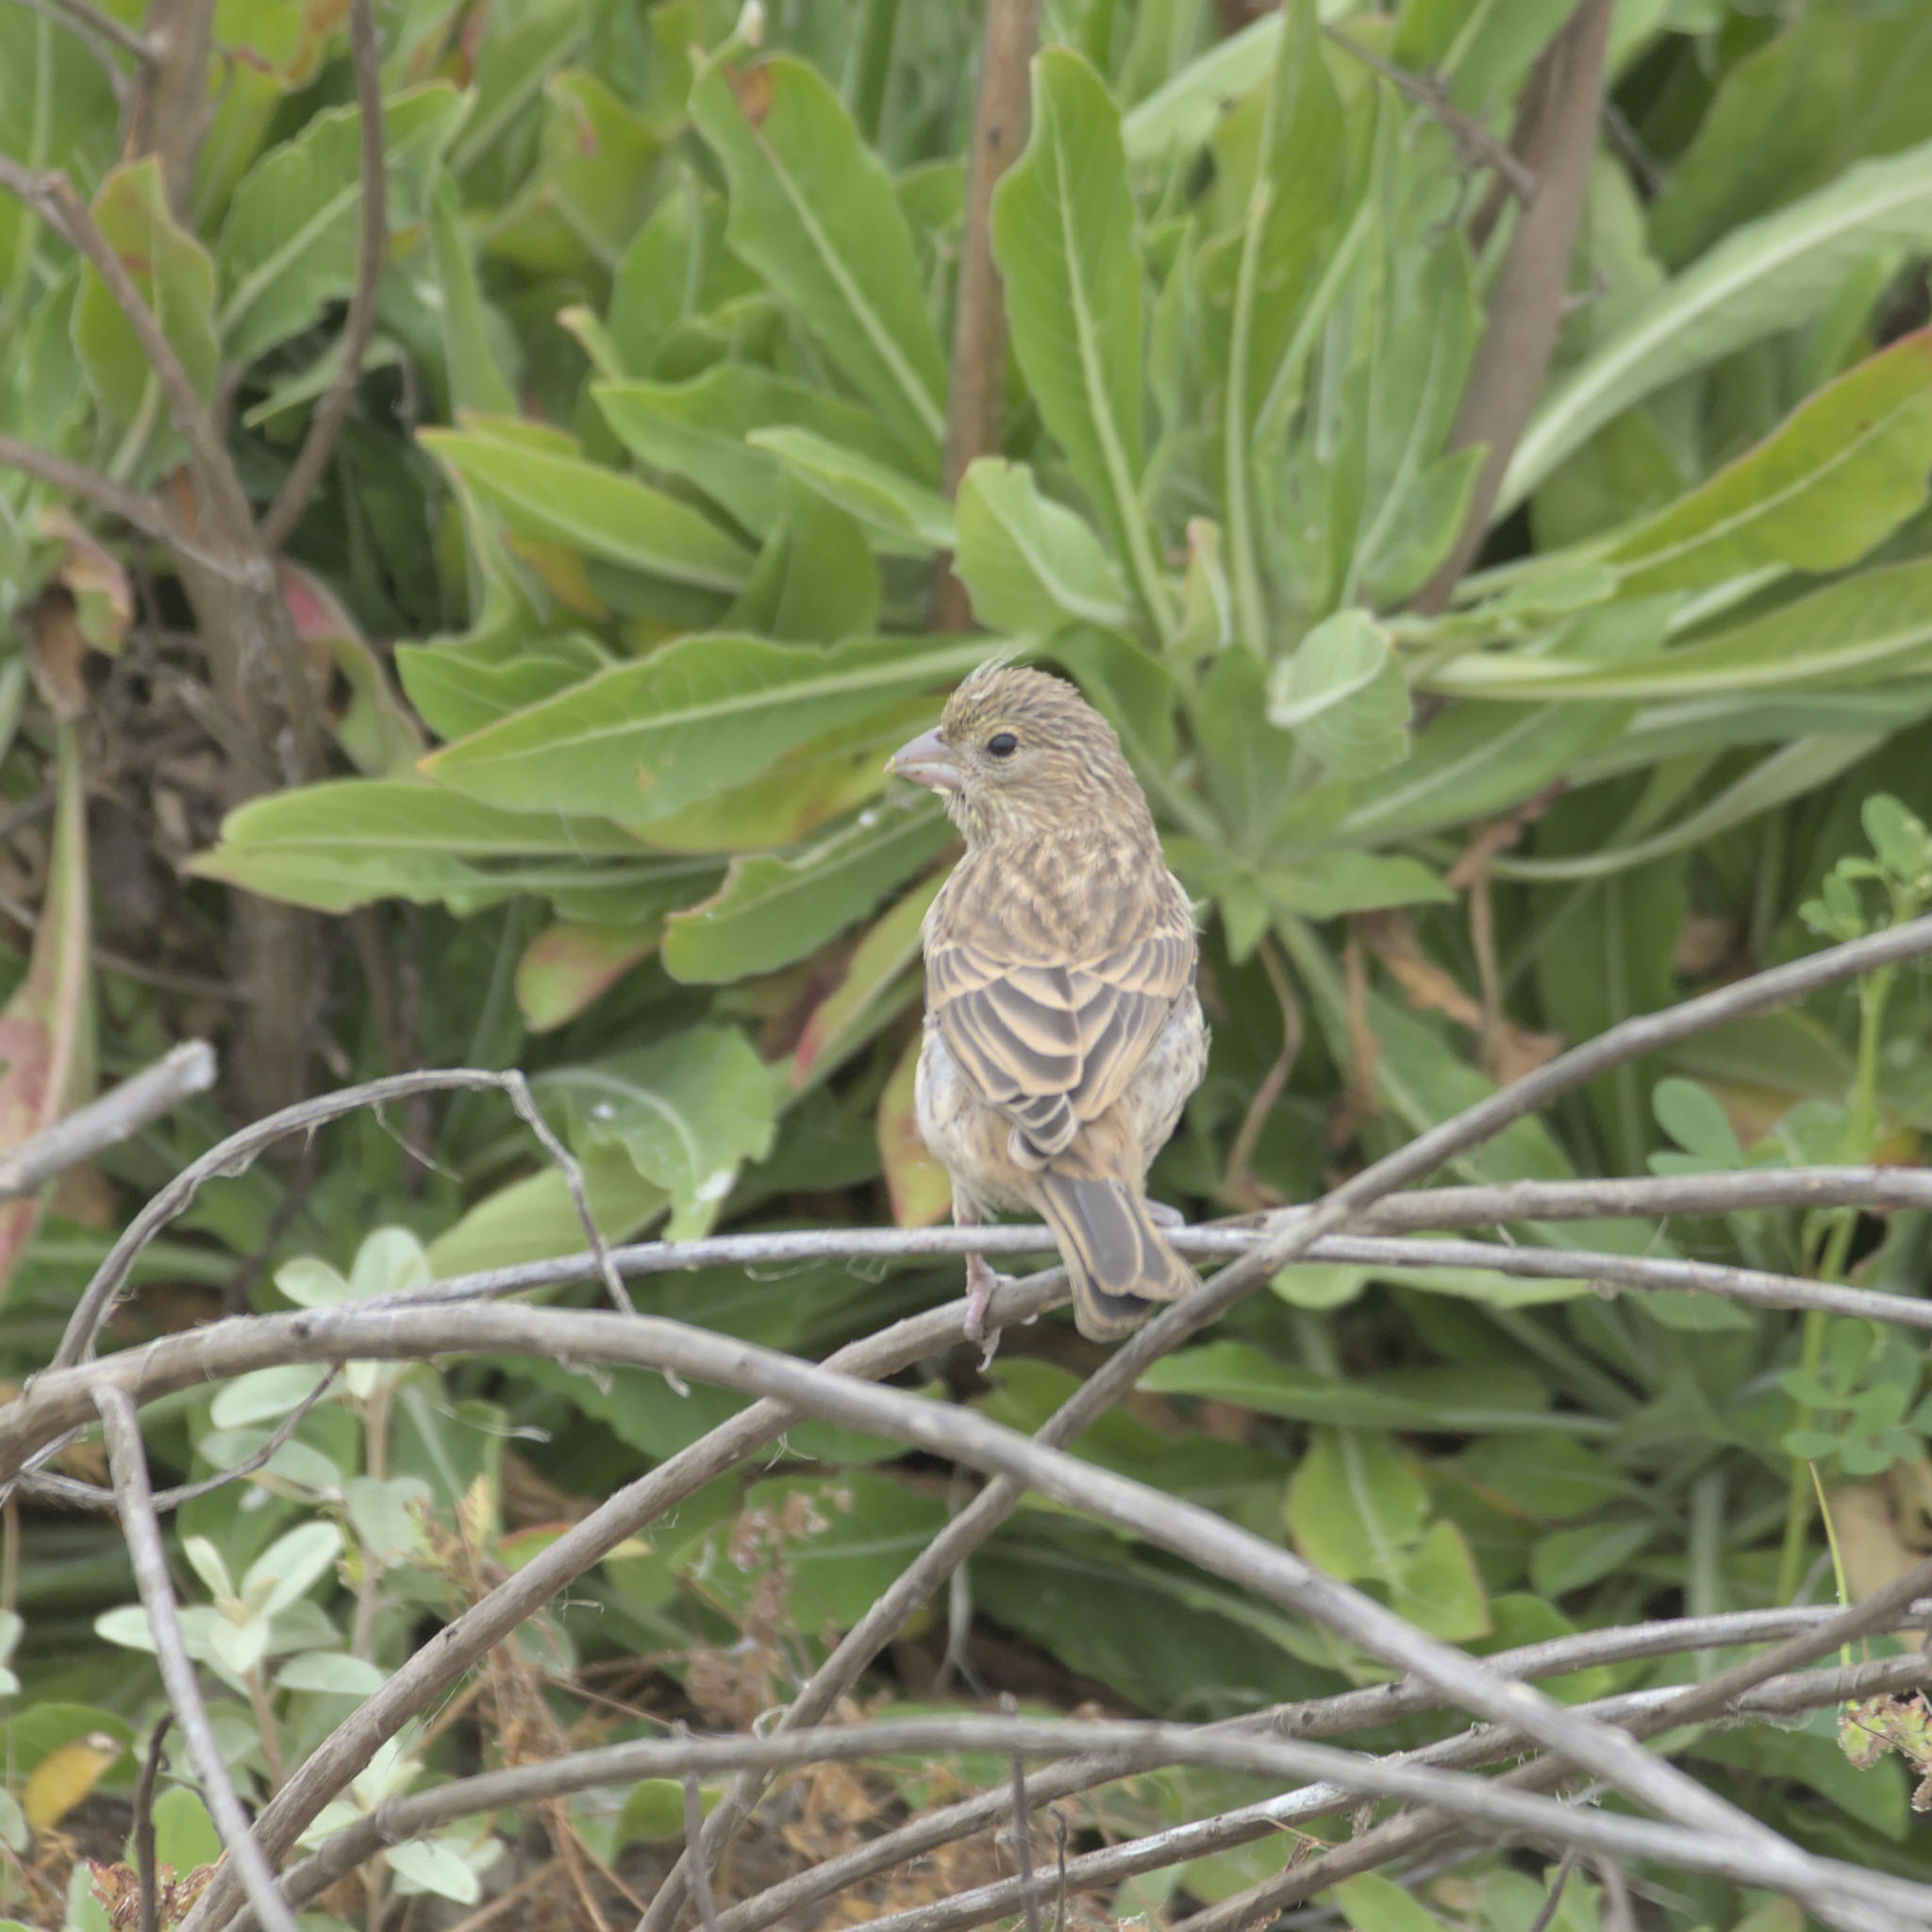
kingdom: Animalia
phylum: Chordata
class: Aves
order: Passeriformes
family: Fringillidae
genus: Haemorhous
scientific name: Haemorhous mexicanus
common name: House finch
